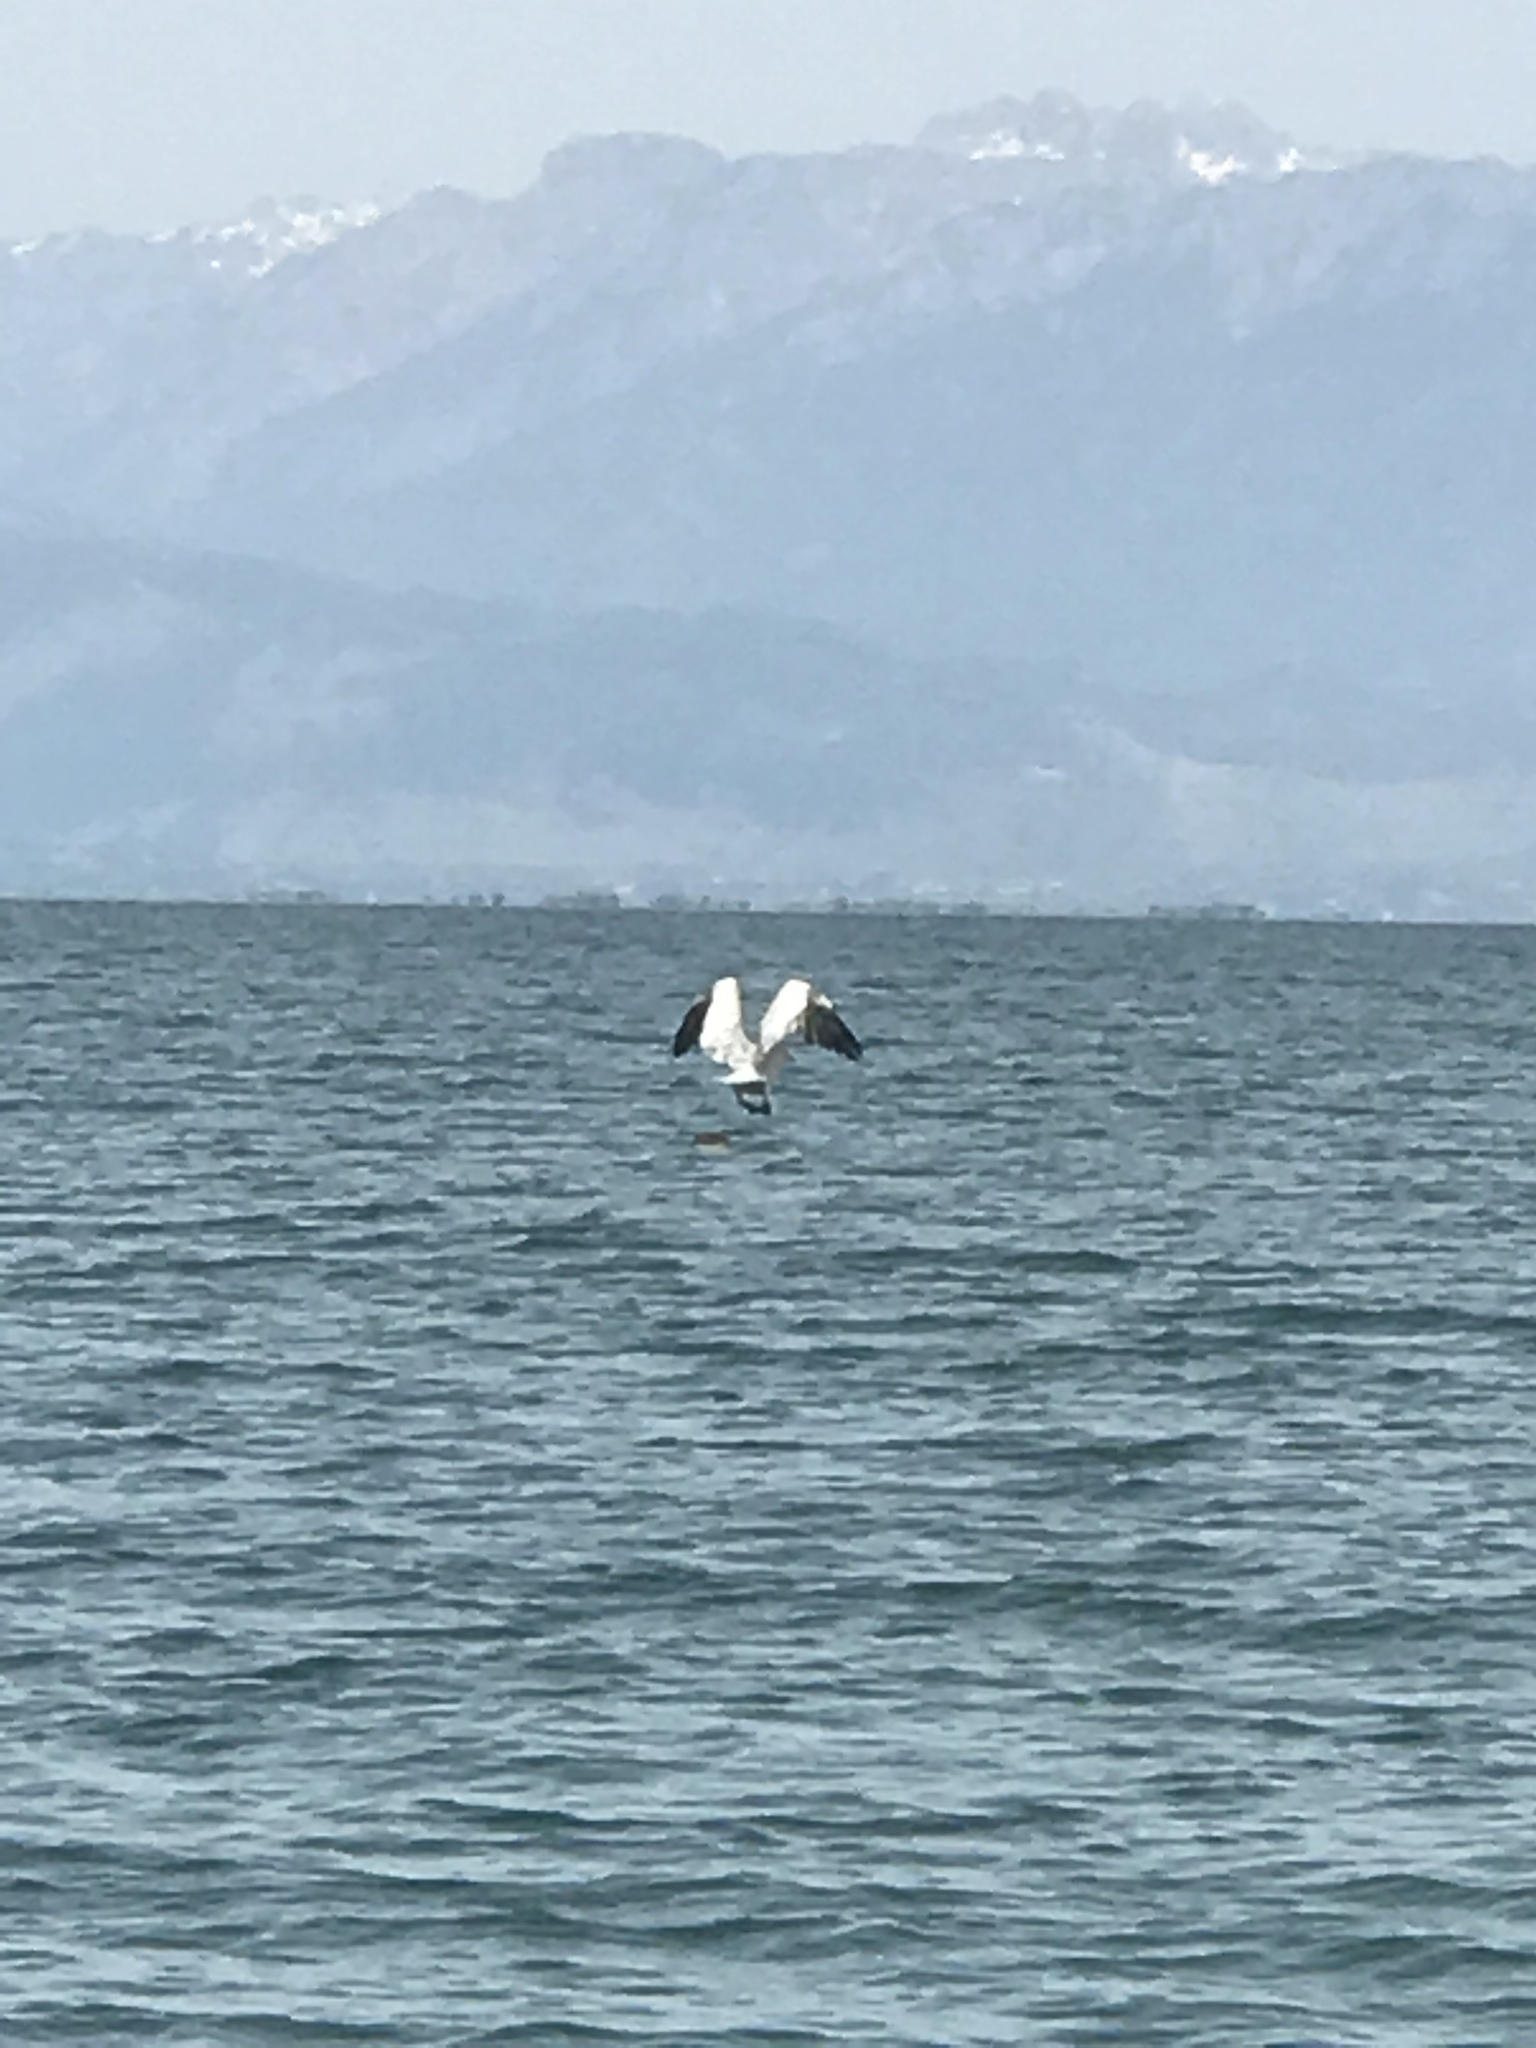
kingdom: Animalia
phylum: Chordata
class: Aves
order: Pelecaniformes
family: Pelecanidae
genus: Pelecanus
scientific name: Pelecanus crispus
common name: Dalmatian pelican
